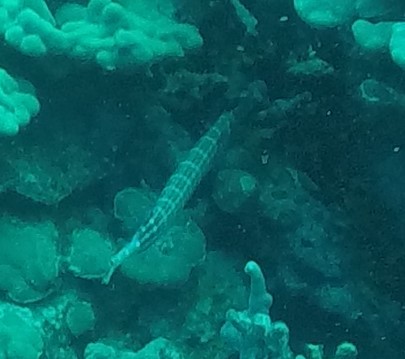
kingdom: Animalia
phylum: Chordata
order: Syngnathiformes
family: Aulostomidae
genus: Aulostomus
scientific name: Aulostomus chinensis
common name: Chinese trumpetfish
